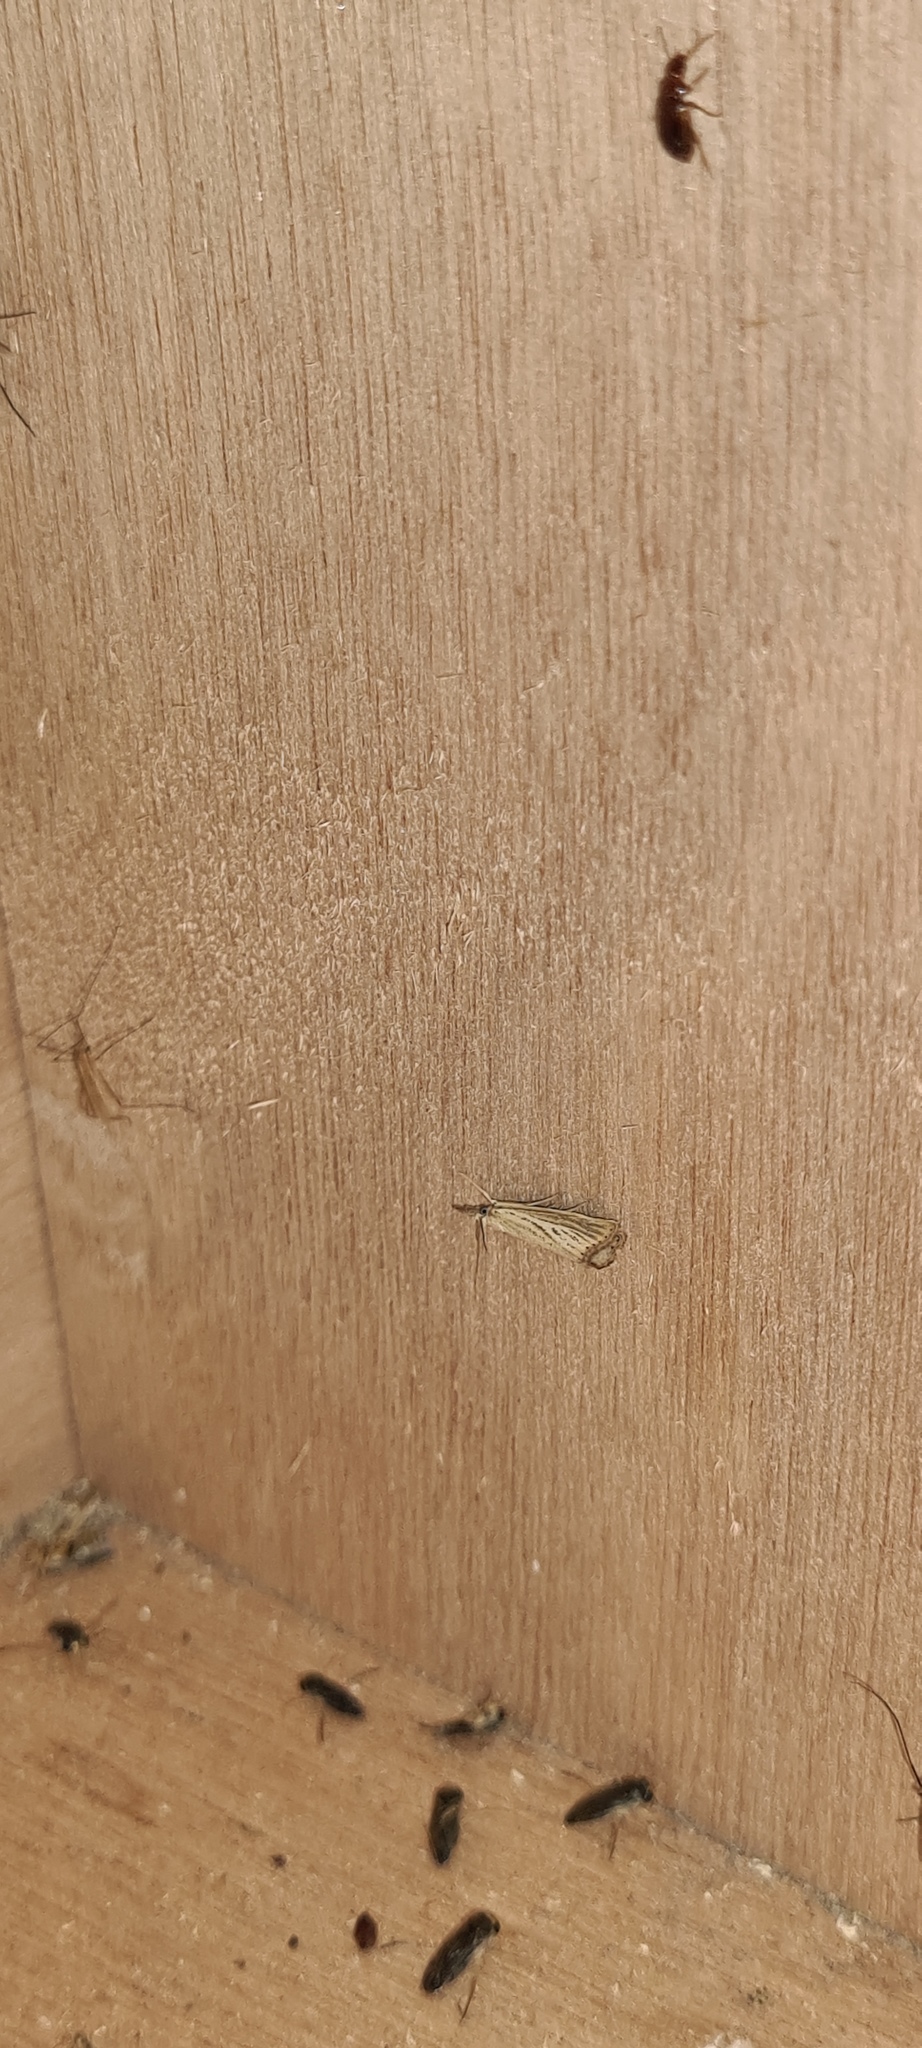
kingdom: Animalia
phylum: Arthropoda
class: Insecta
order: Lepidoptera
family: Crambidae
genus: Agriphila
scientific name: Agriphila straminella
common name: Straw grass-veneer
